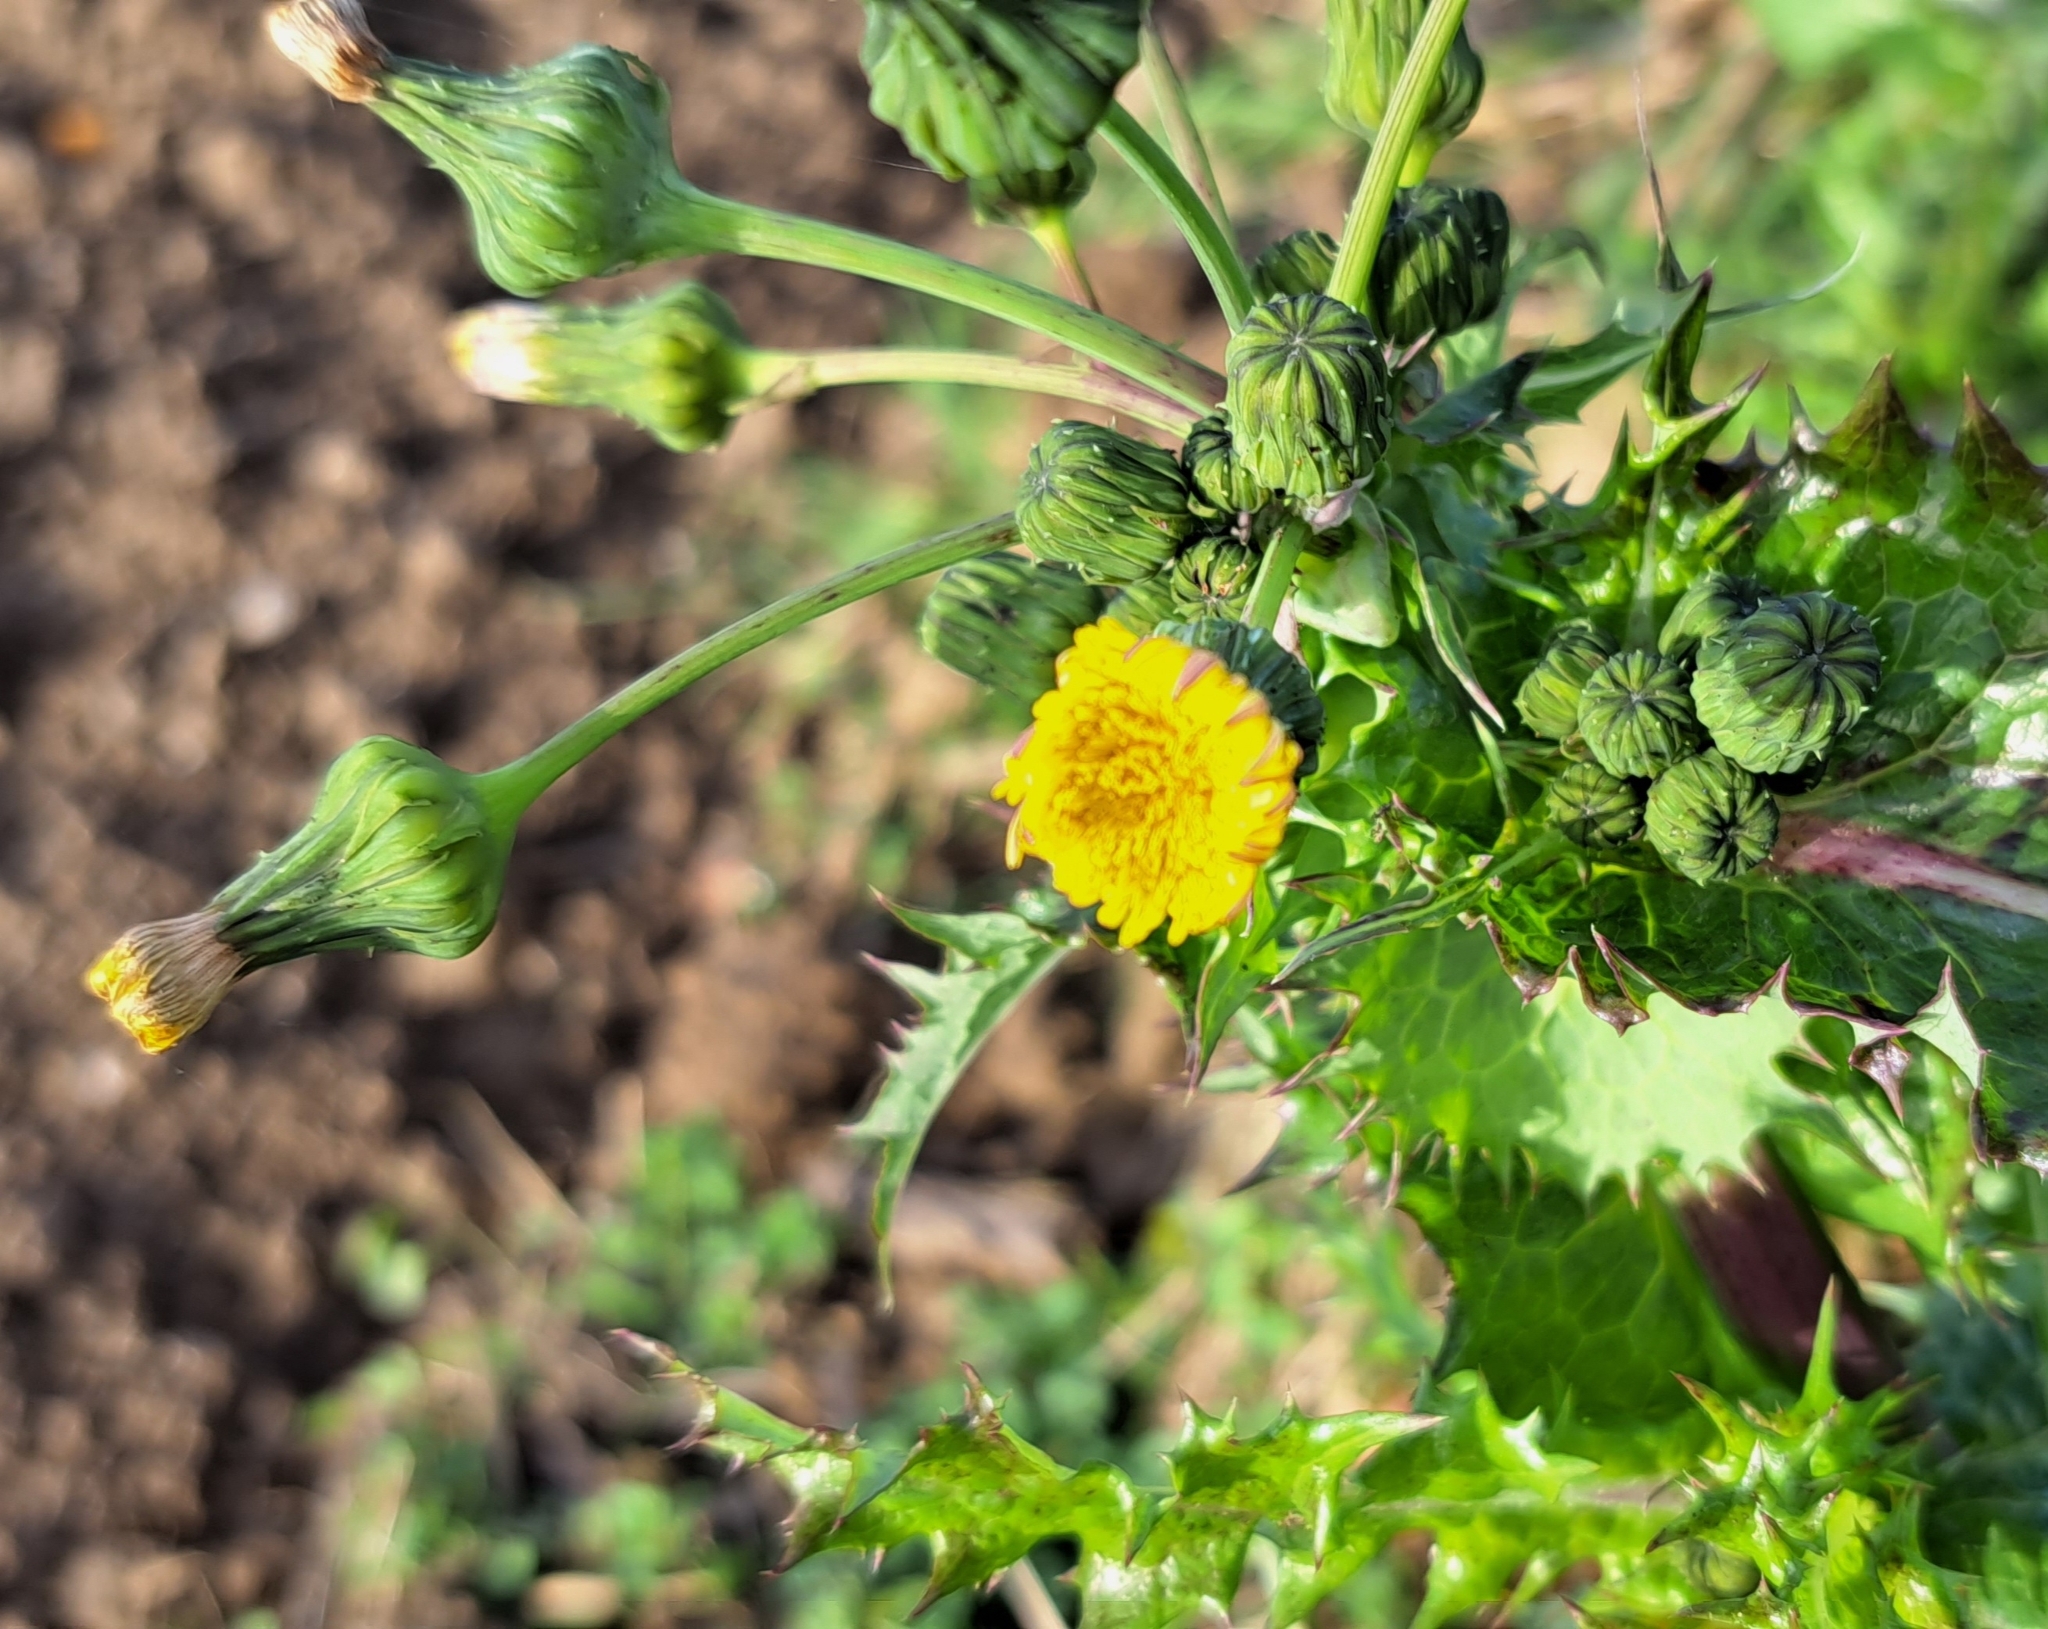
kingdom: Plantae
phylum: Tracheophyta
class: Magnoliopsida
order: Asterales
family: Asteraceae
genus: Sonchus
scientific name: Sonchus asper
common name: Prickly sow-thistle
